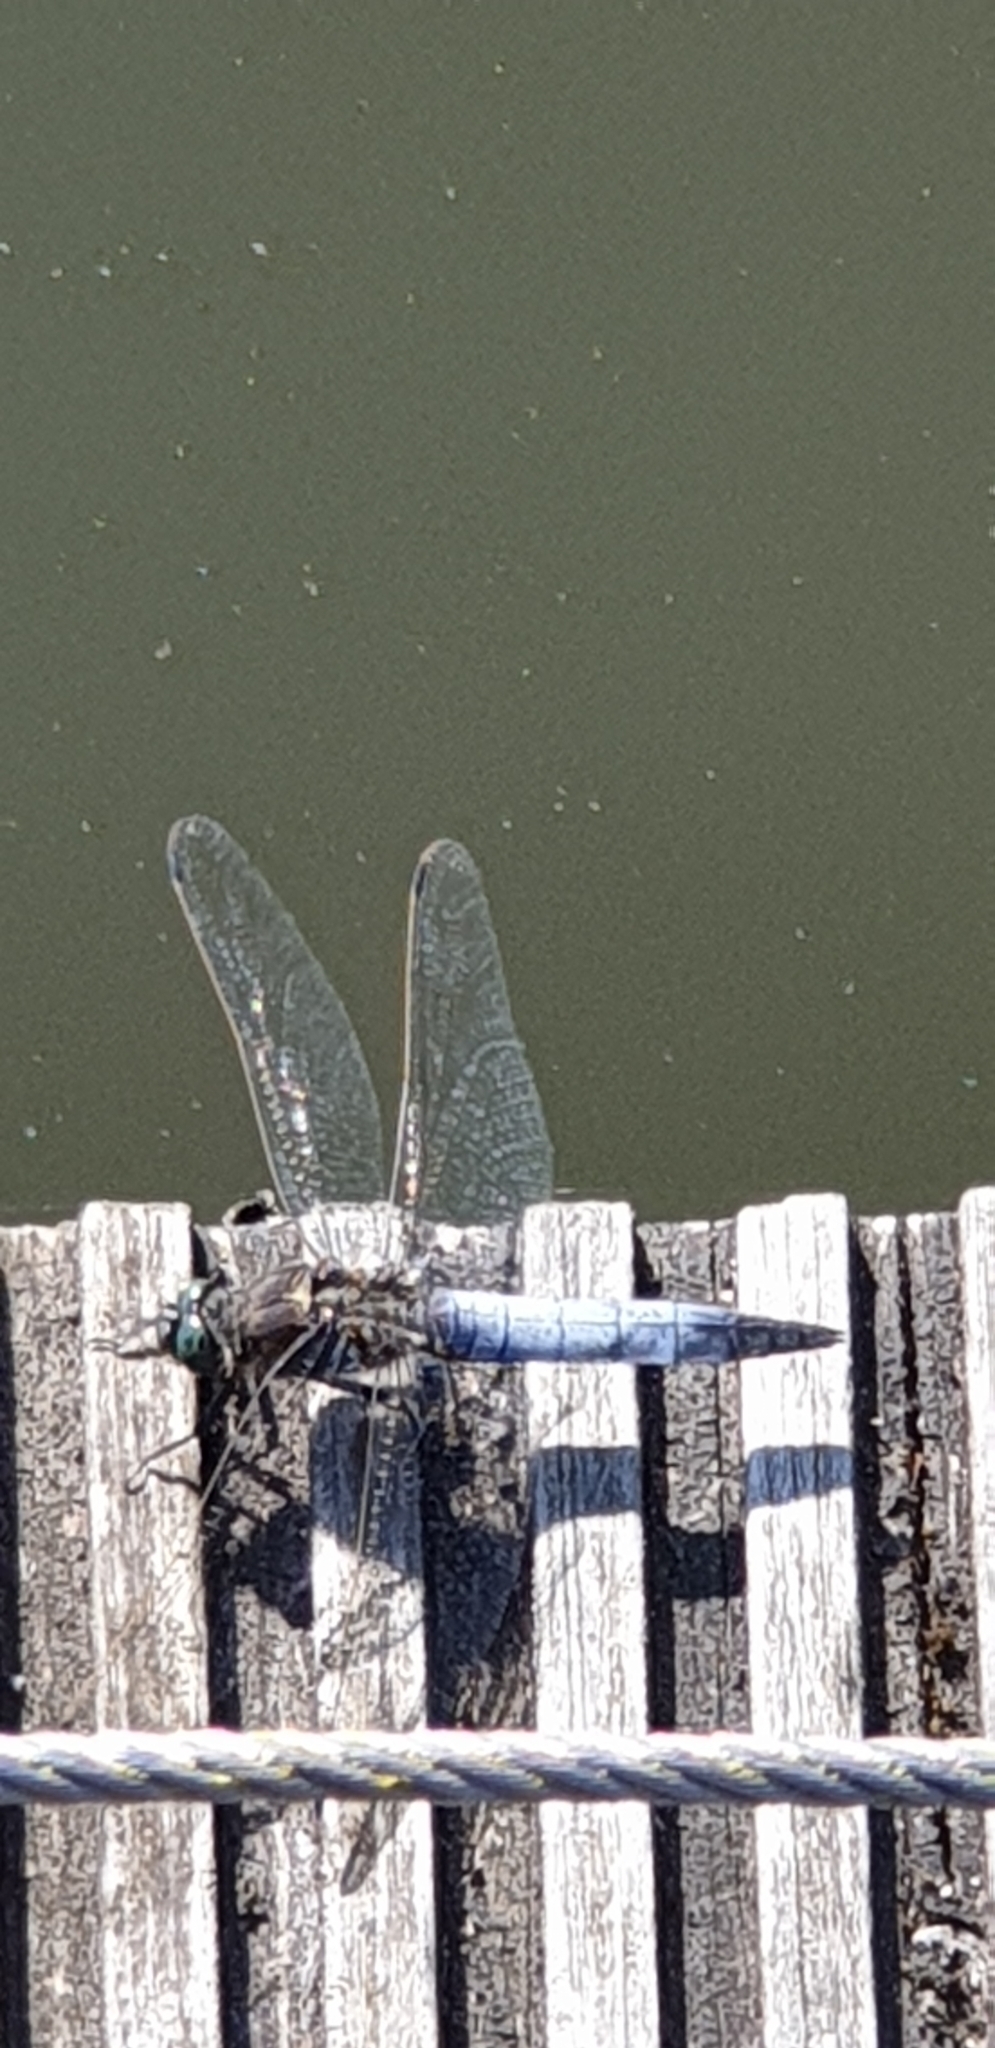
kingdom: Animalia
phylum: Arthropoda
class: Insecta
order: Odonata
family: Libellulidae
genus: Orthetrum
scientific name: Orthetrum cancellatum
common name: Black-tailed skimmer
